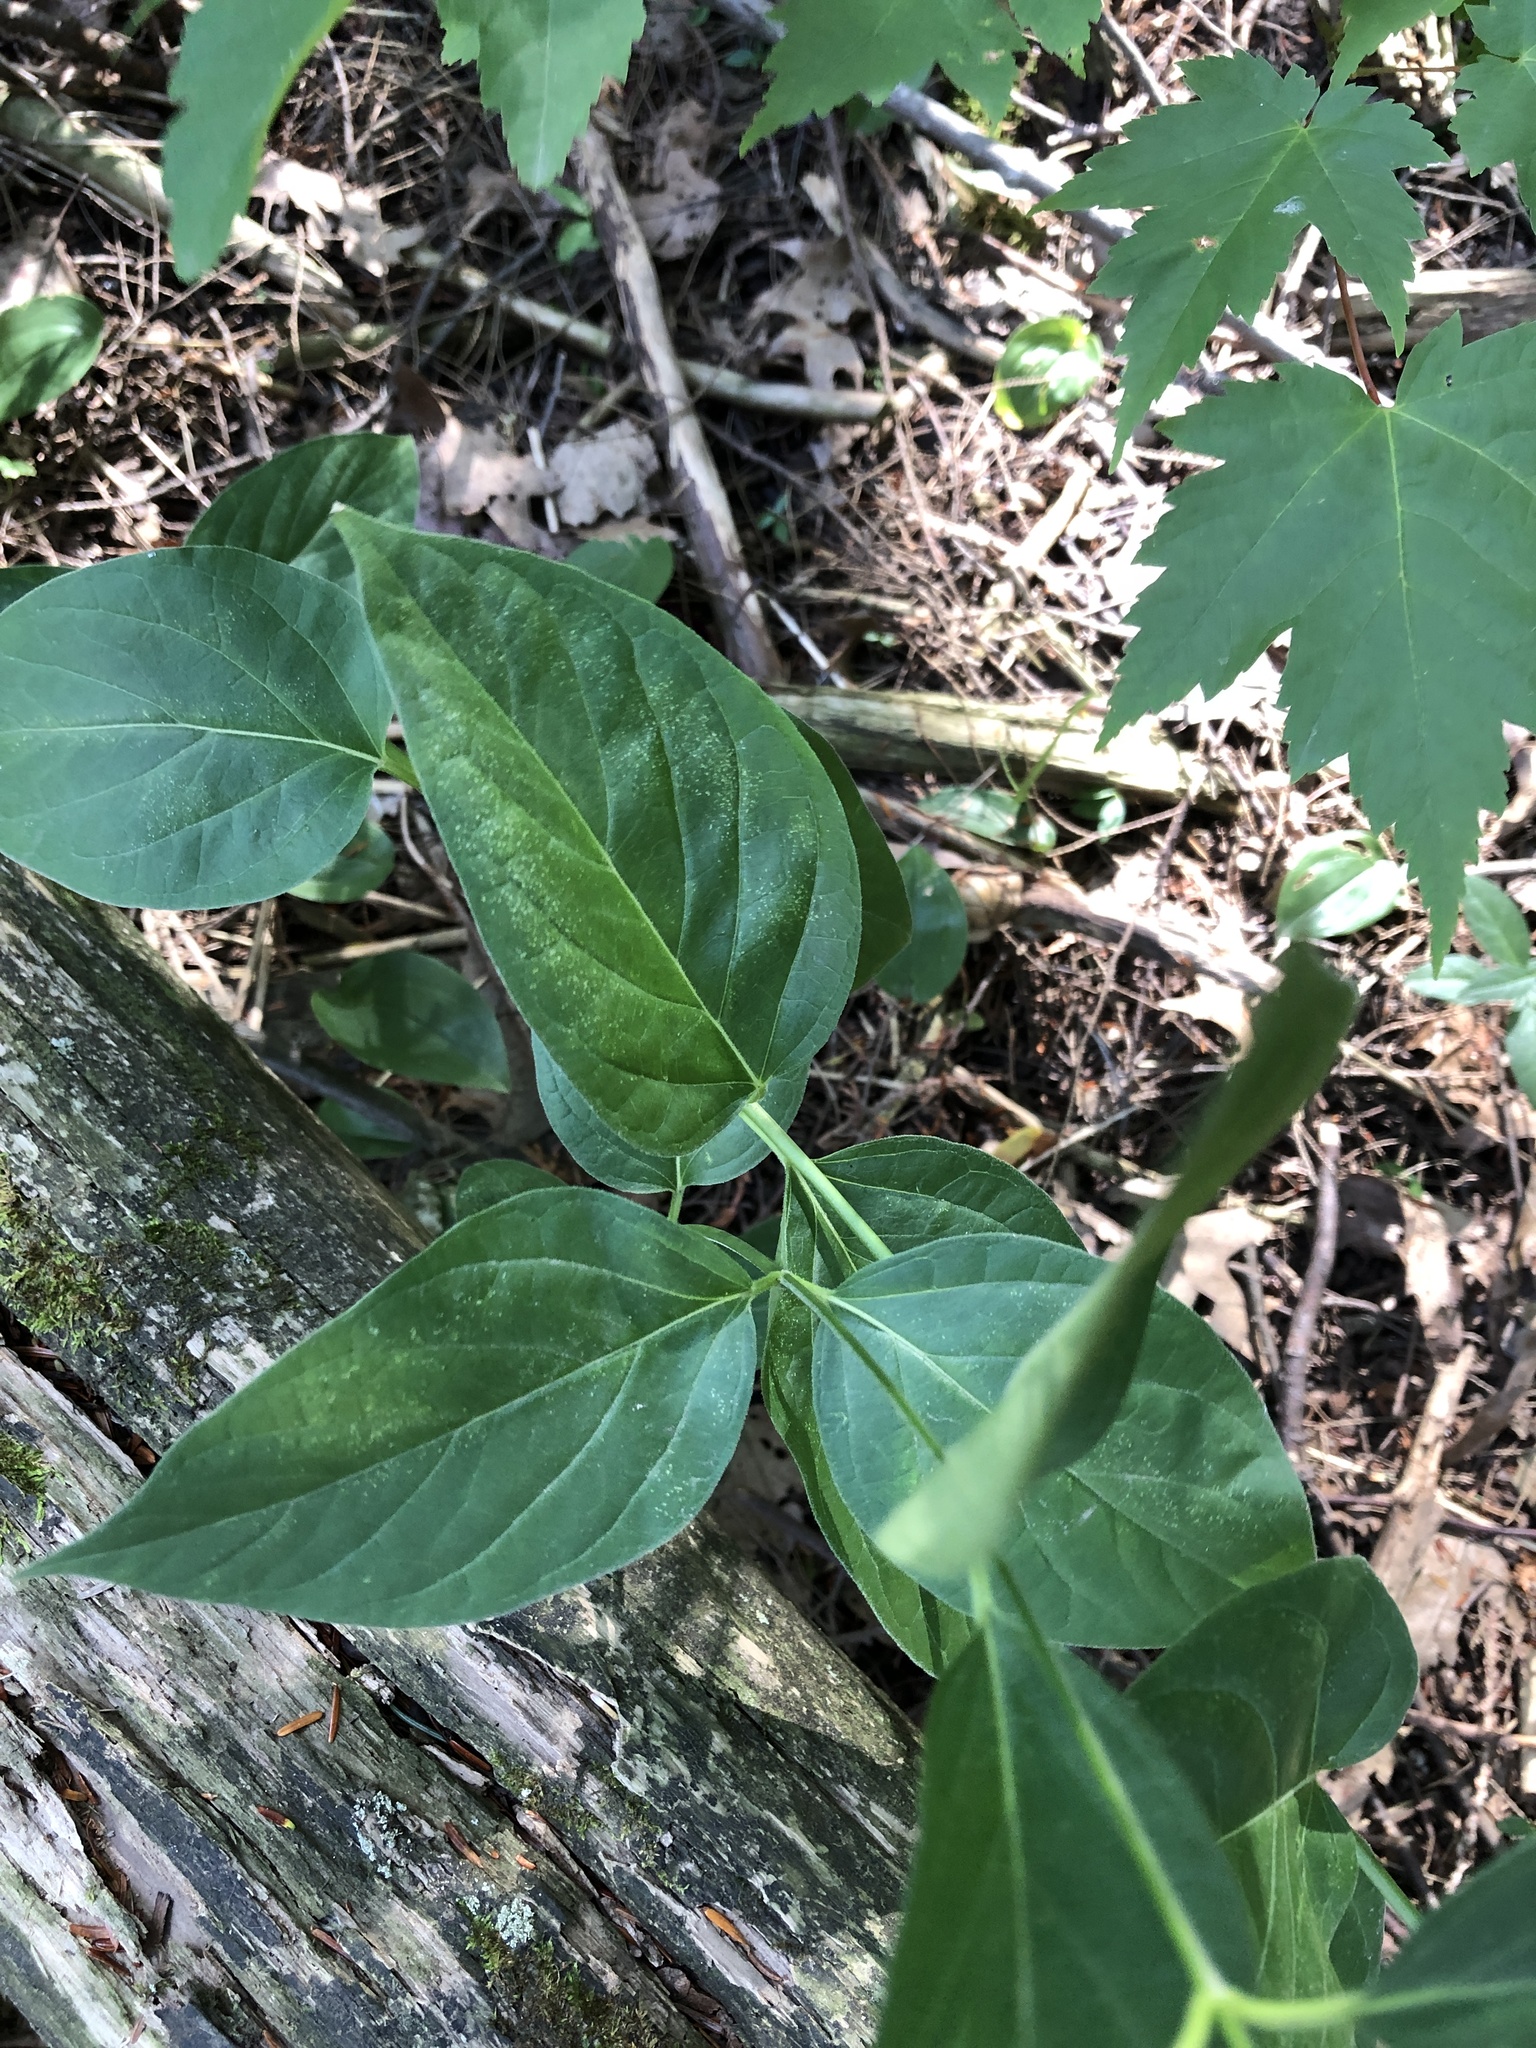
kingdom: Plantae
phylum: Tracheophyta
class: Magnoliopsida
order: Gentianales
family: Apocynaceae
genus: Vincetoxicum
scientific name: Vincetoxicum rossicum
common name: Dog-strangling vine
